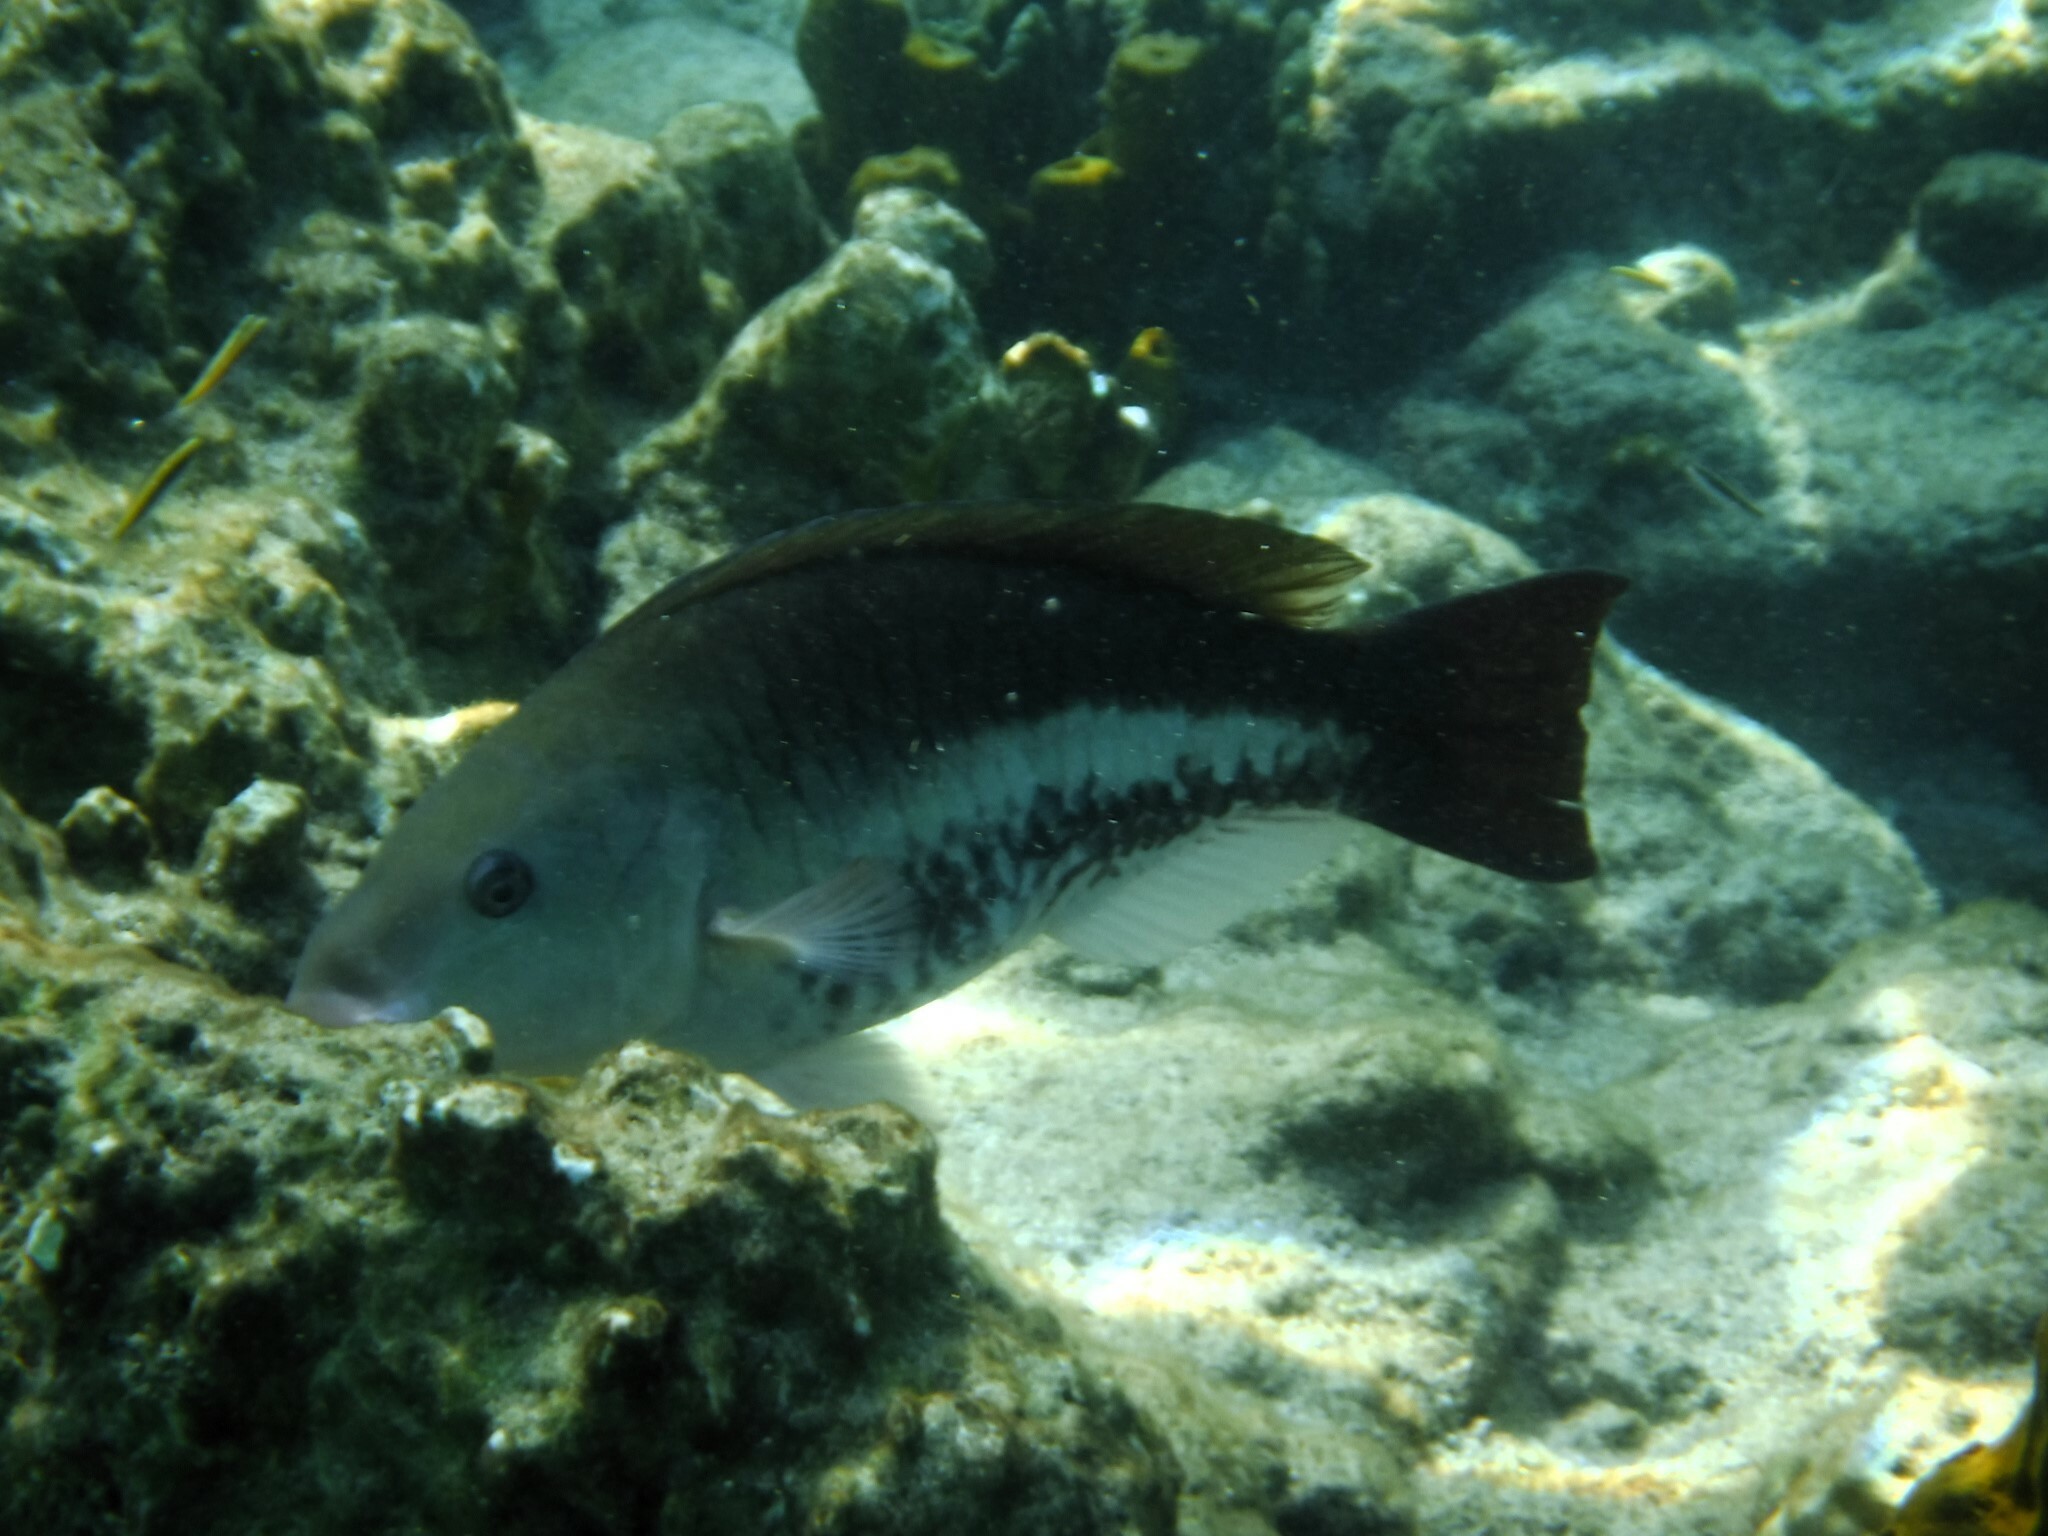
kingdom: Animalia
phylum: Chordata
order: Perciformes
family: Scaridae
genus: Scarus
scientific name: Scarus vetula
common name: Queen parrotfish
